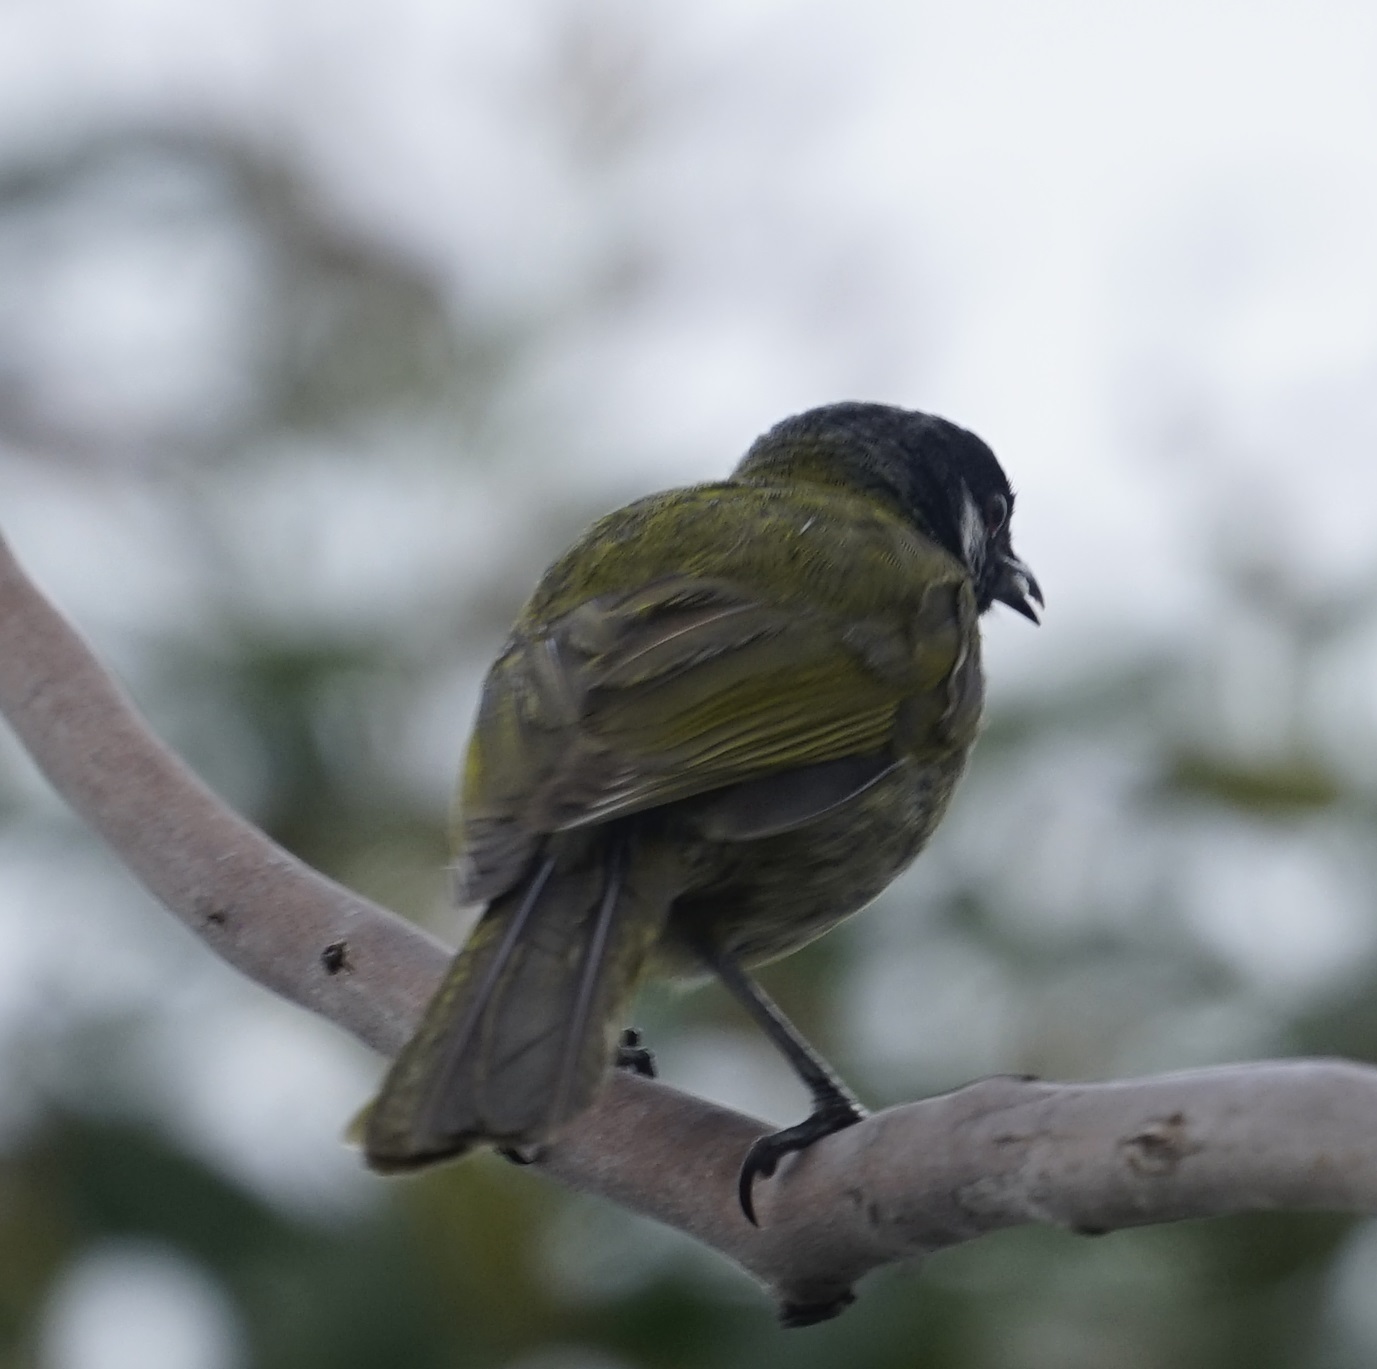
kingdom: Animalia
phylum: Chordata
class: Aves
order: Passeriformes
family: Meliphagidae
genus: Nesoptilotis
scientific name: Nesoptilotis leucotis
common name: White-eared honeyeater
